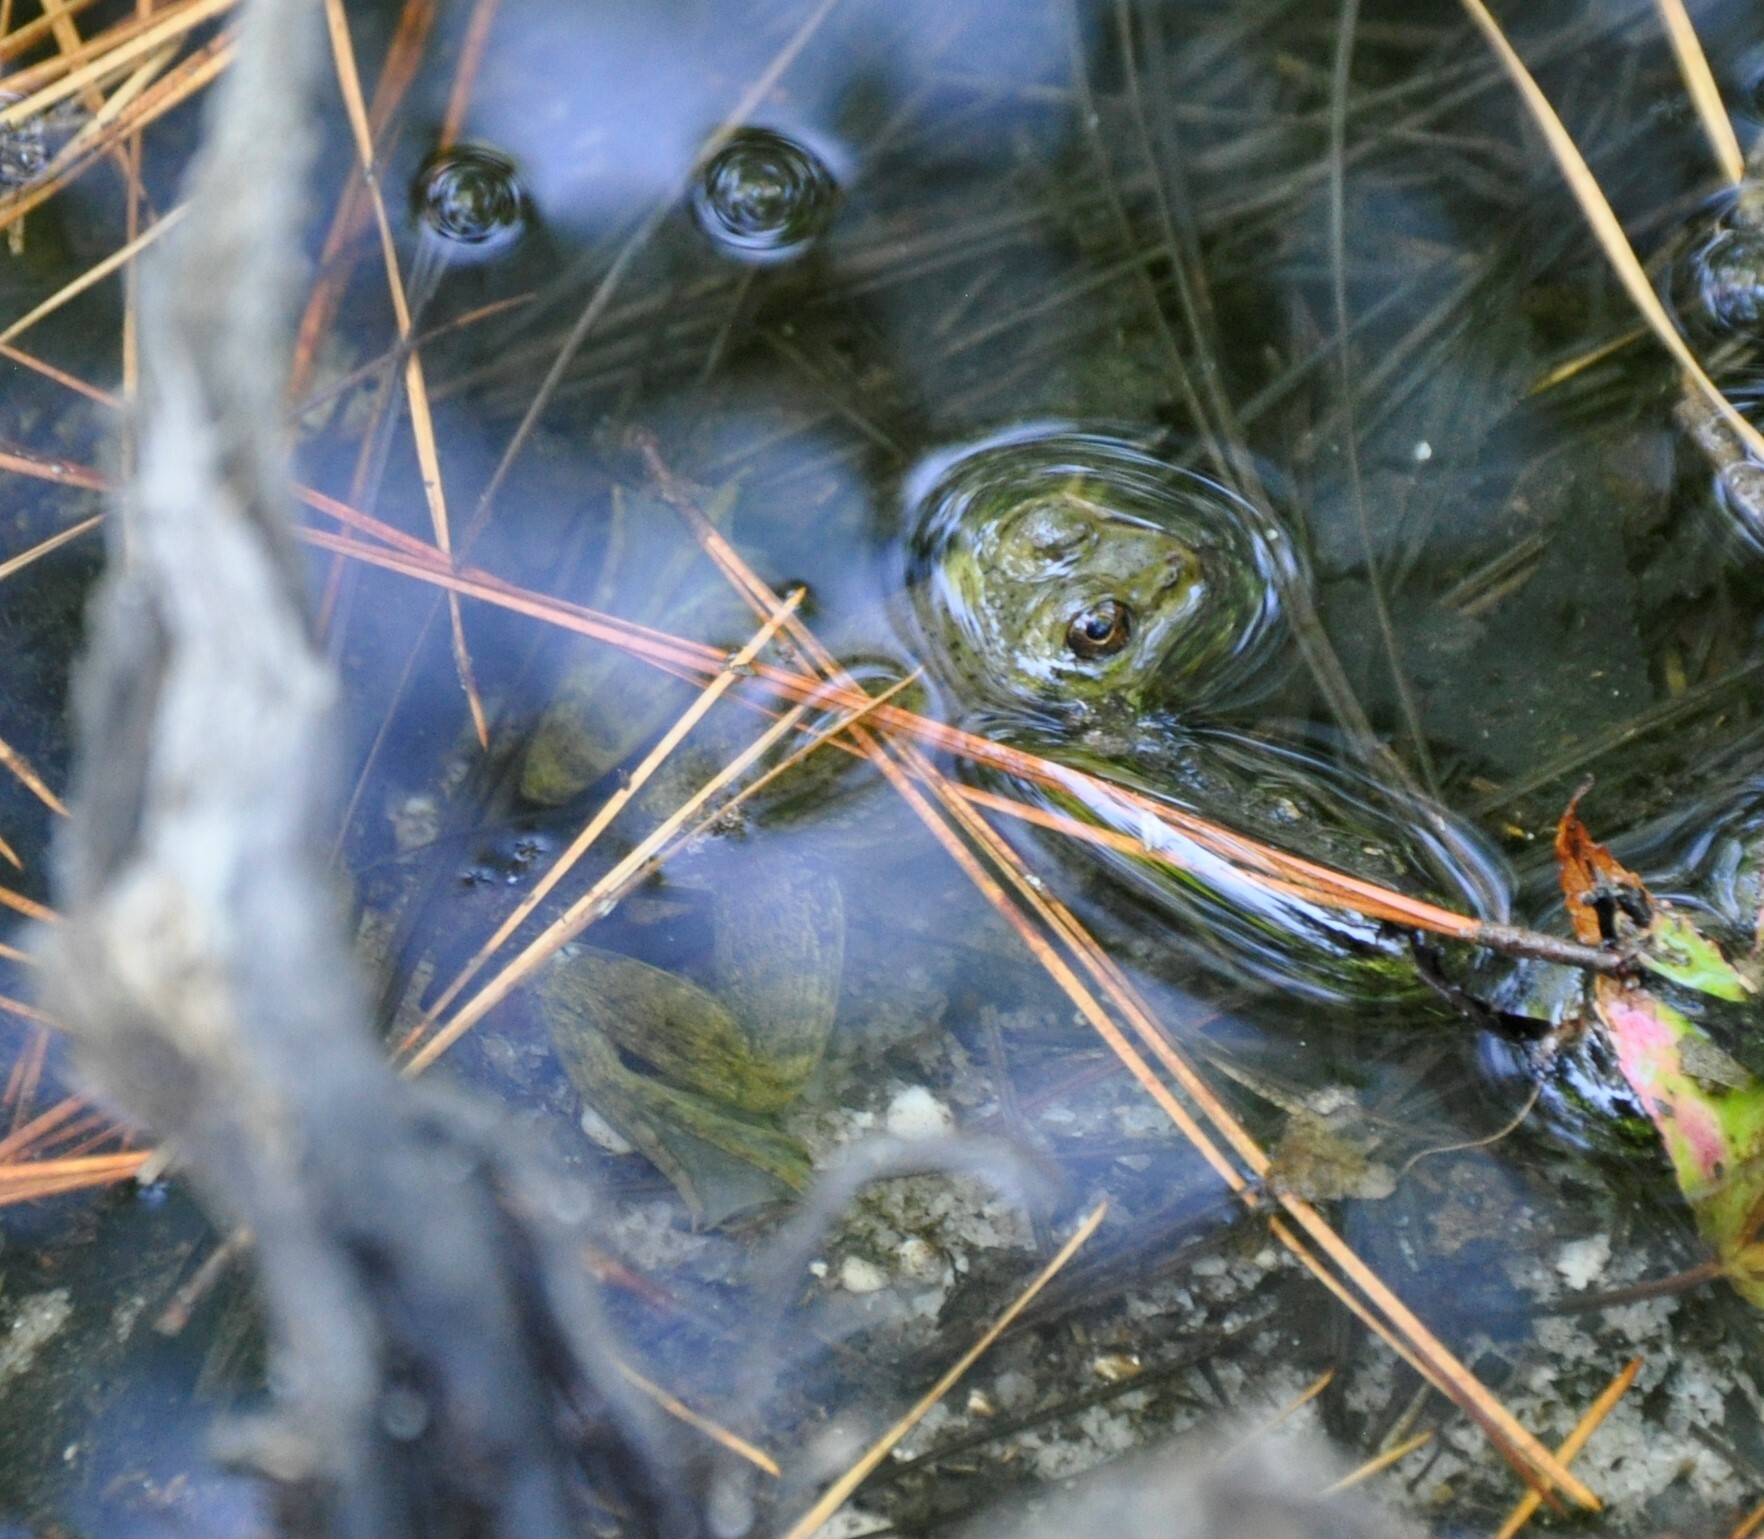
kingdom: Animalia
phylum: Chordata
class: Amphibia
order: Anura
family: Ranidae
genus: Lithobates
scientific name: Lithobates catesbeianus
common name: American bullfrog
